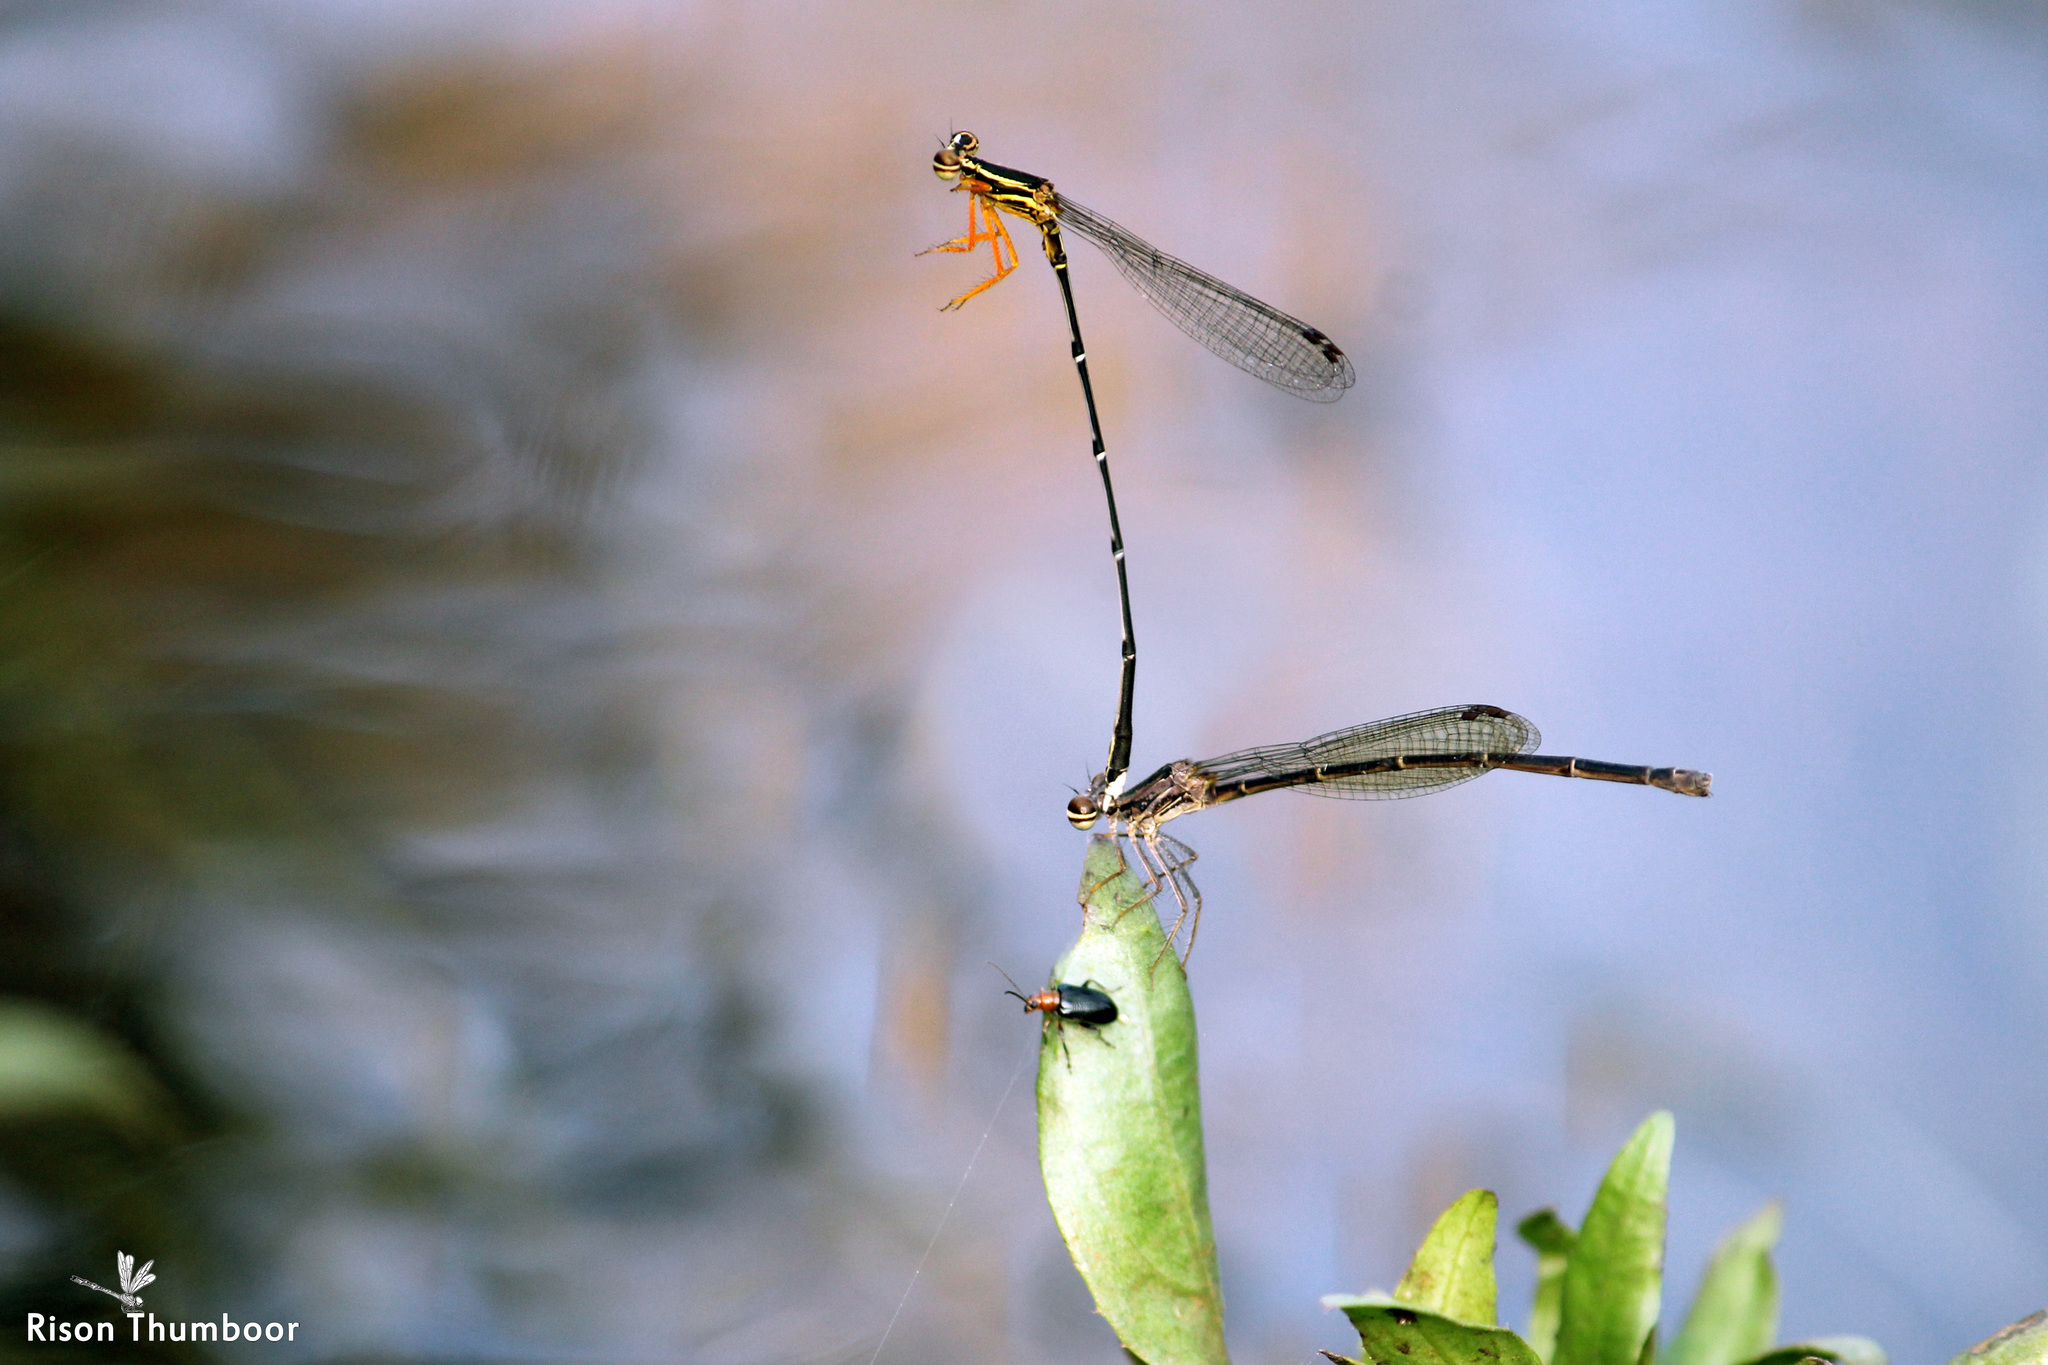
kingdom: Animalia
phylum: Arthropoda
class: Insecta
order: Odonata
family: Platycnemididae
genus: Copera
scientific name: Copera marginipes
